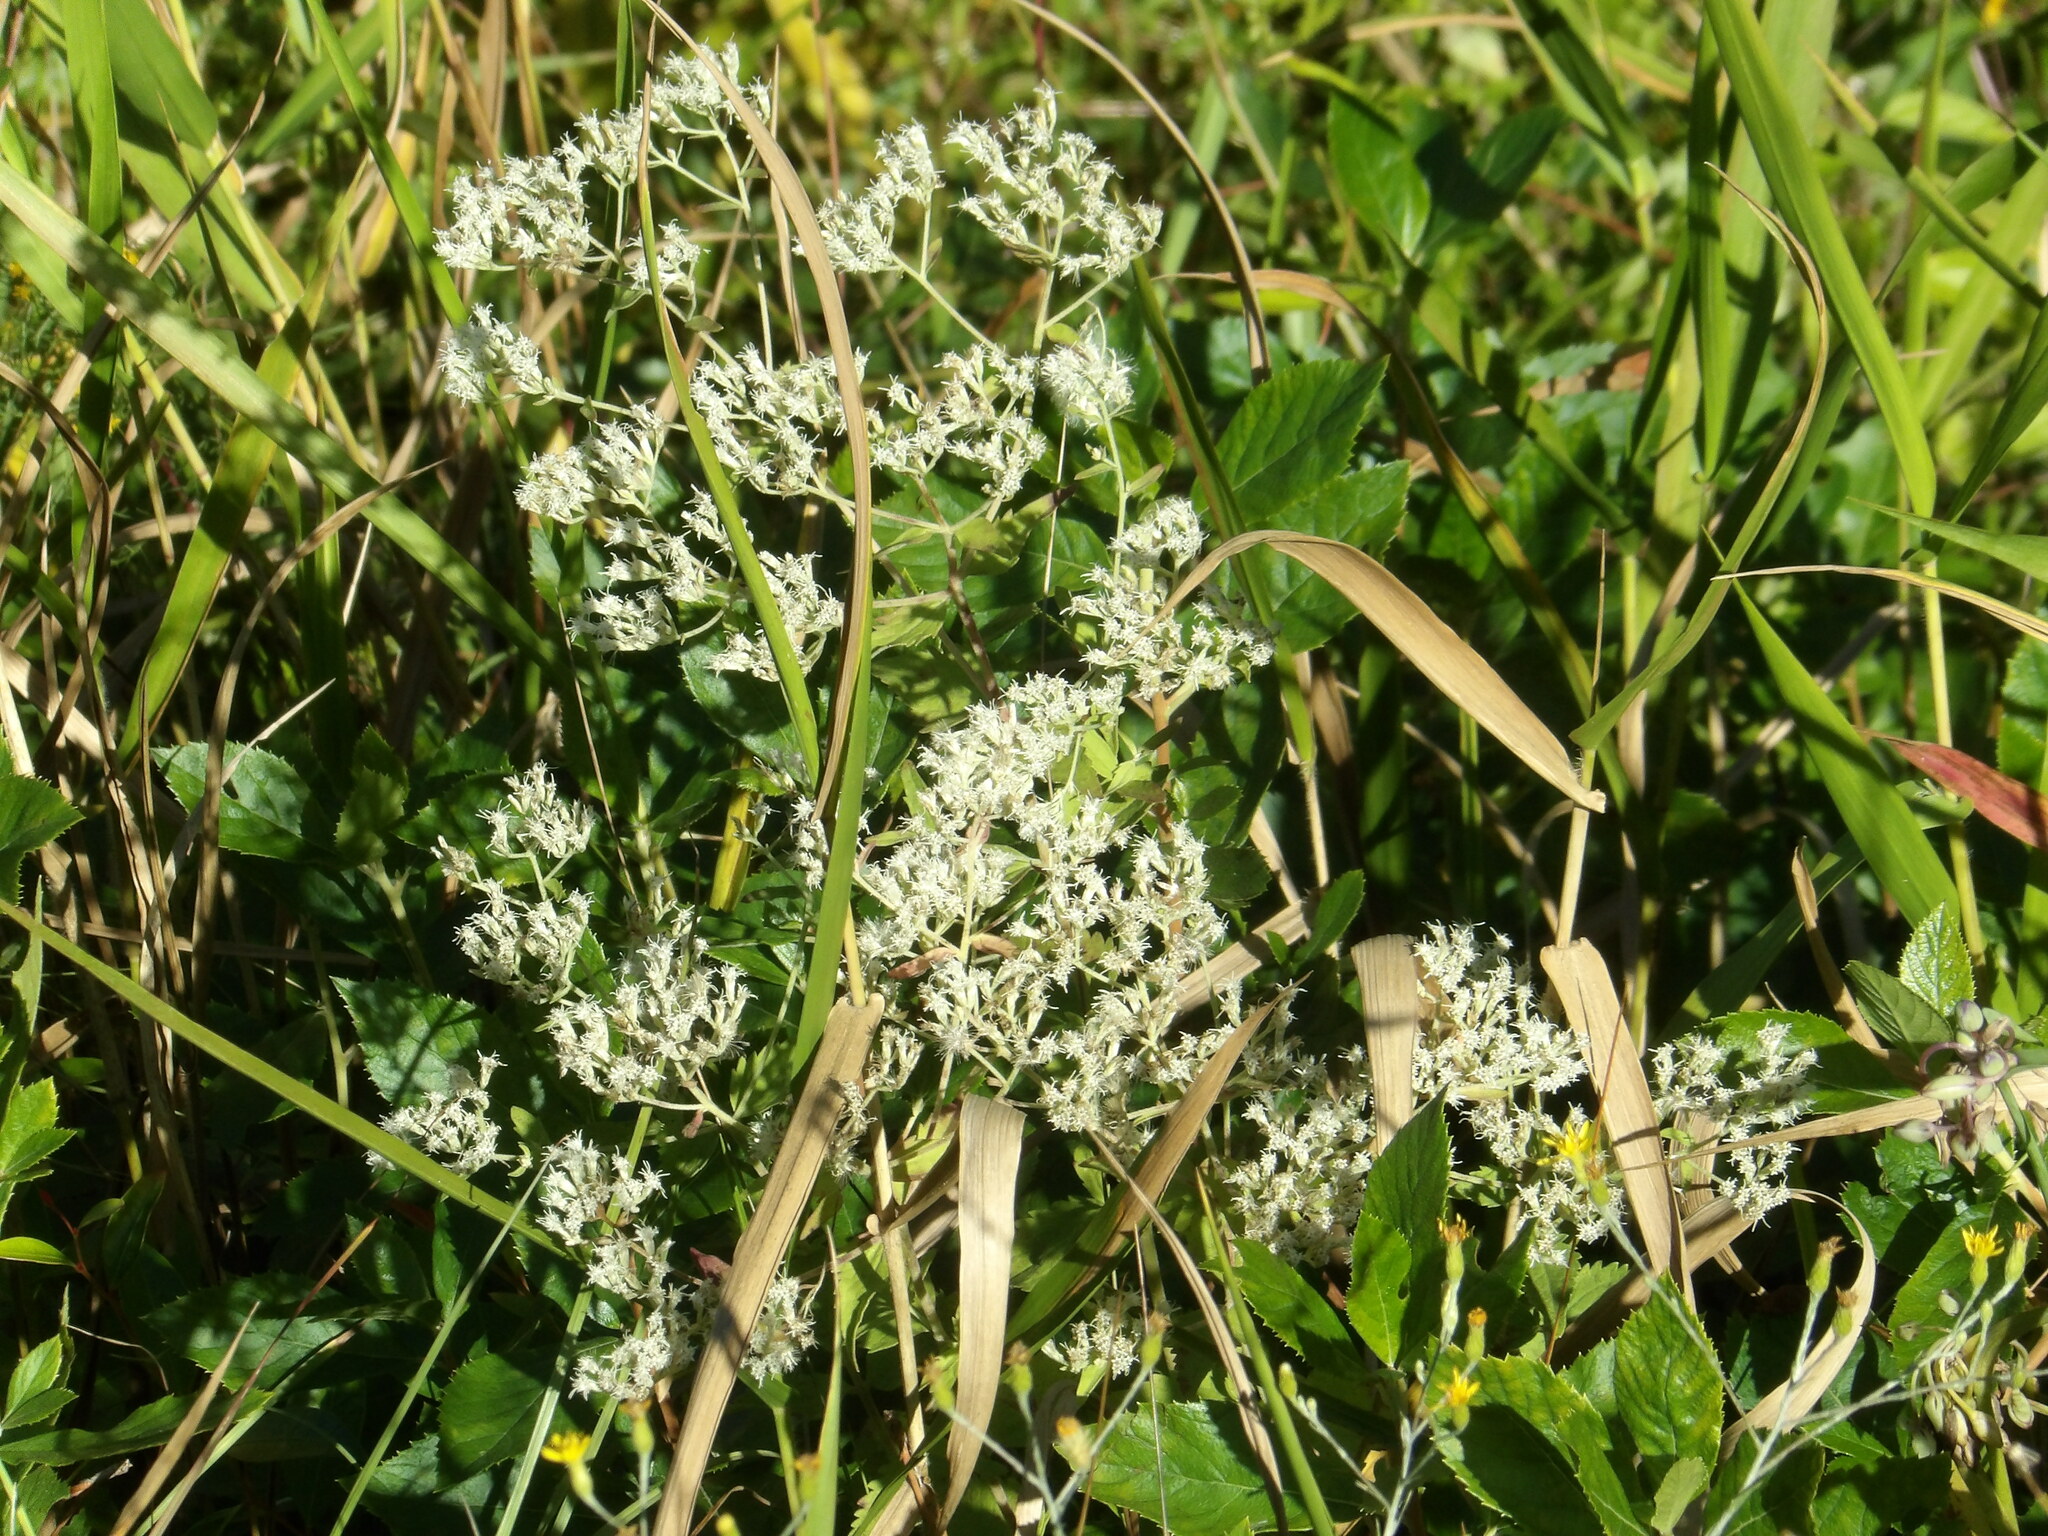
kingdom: Plantae
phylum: Tracheophyta
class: Magnoliopsida
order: Asterales
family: Asteraceae
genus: Eupatorium
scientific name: Eupatorium pilosum
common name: Rough boneset
